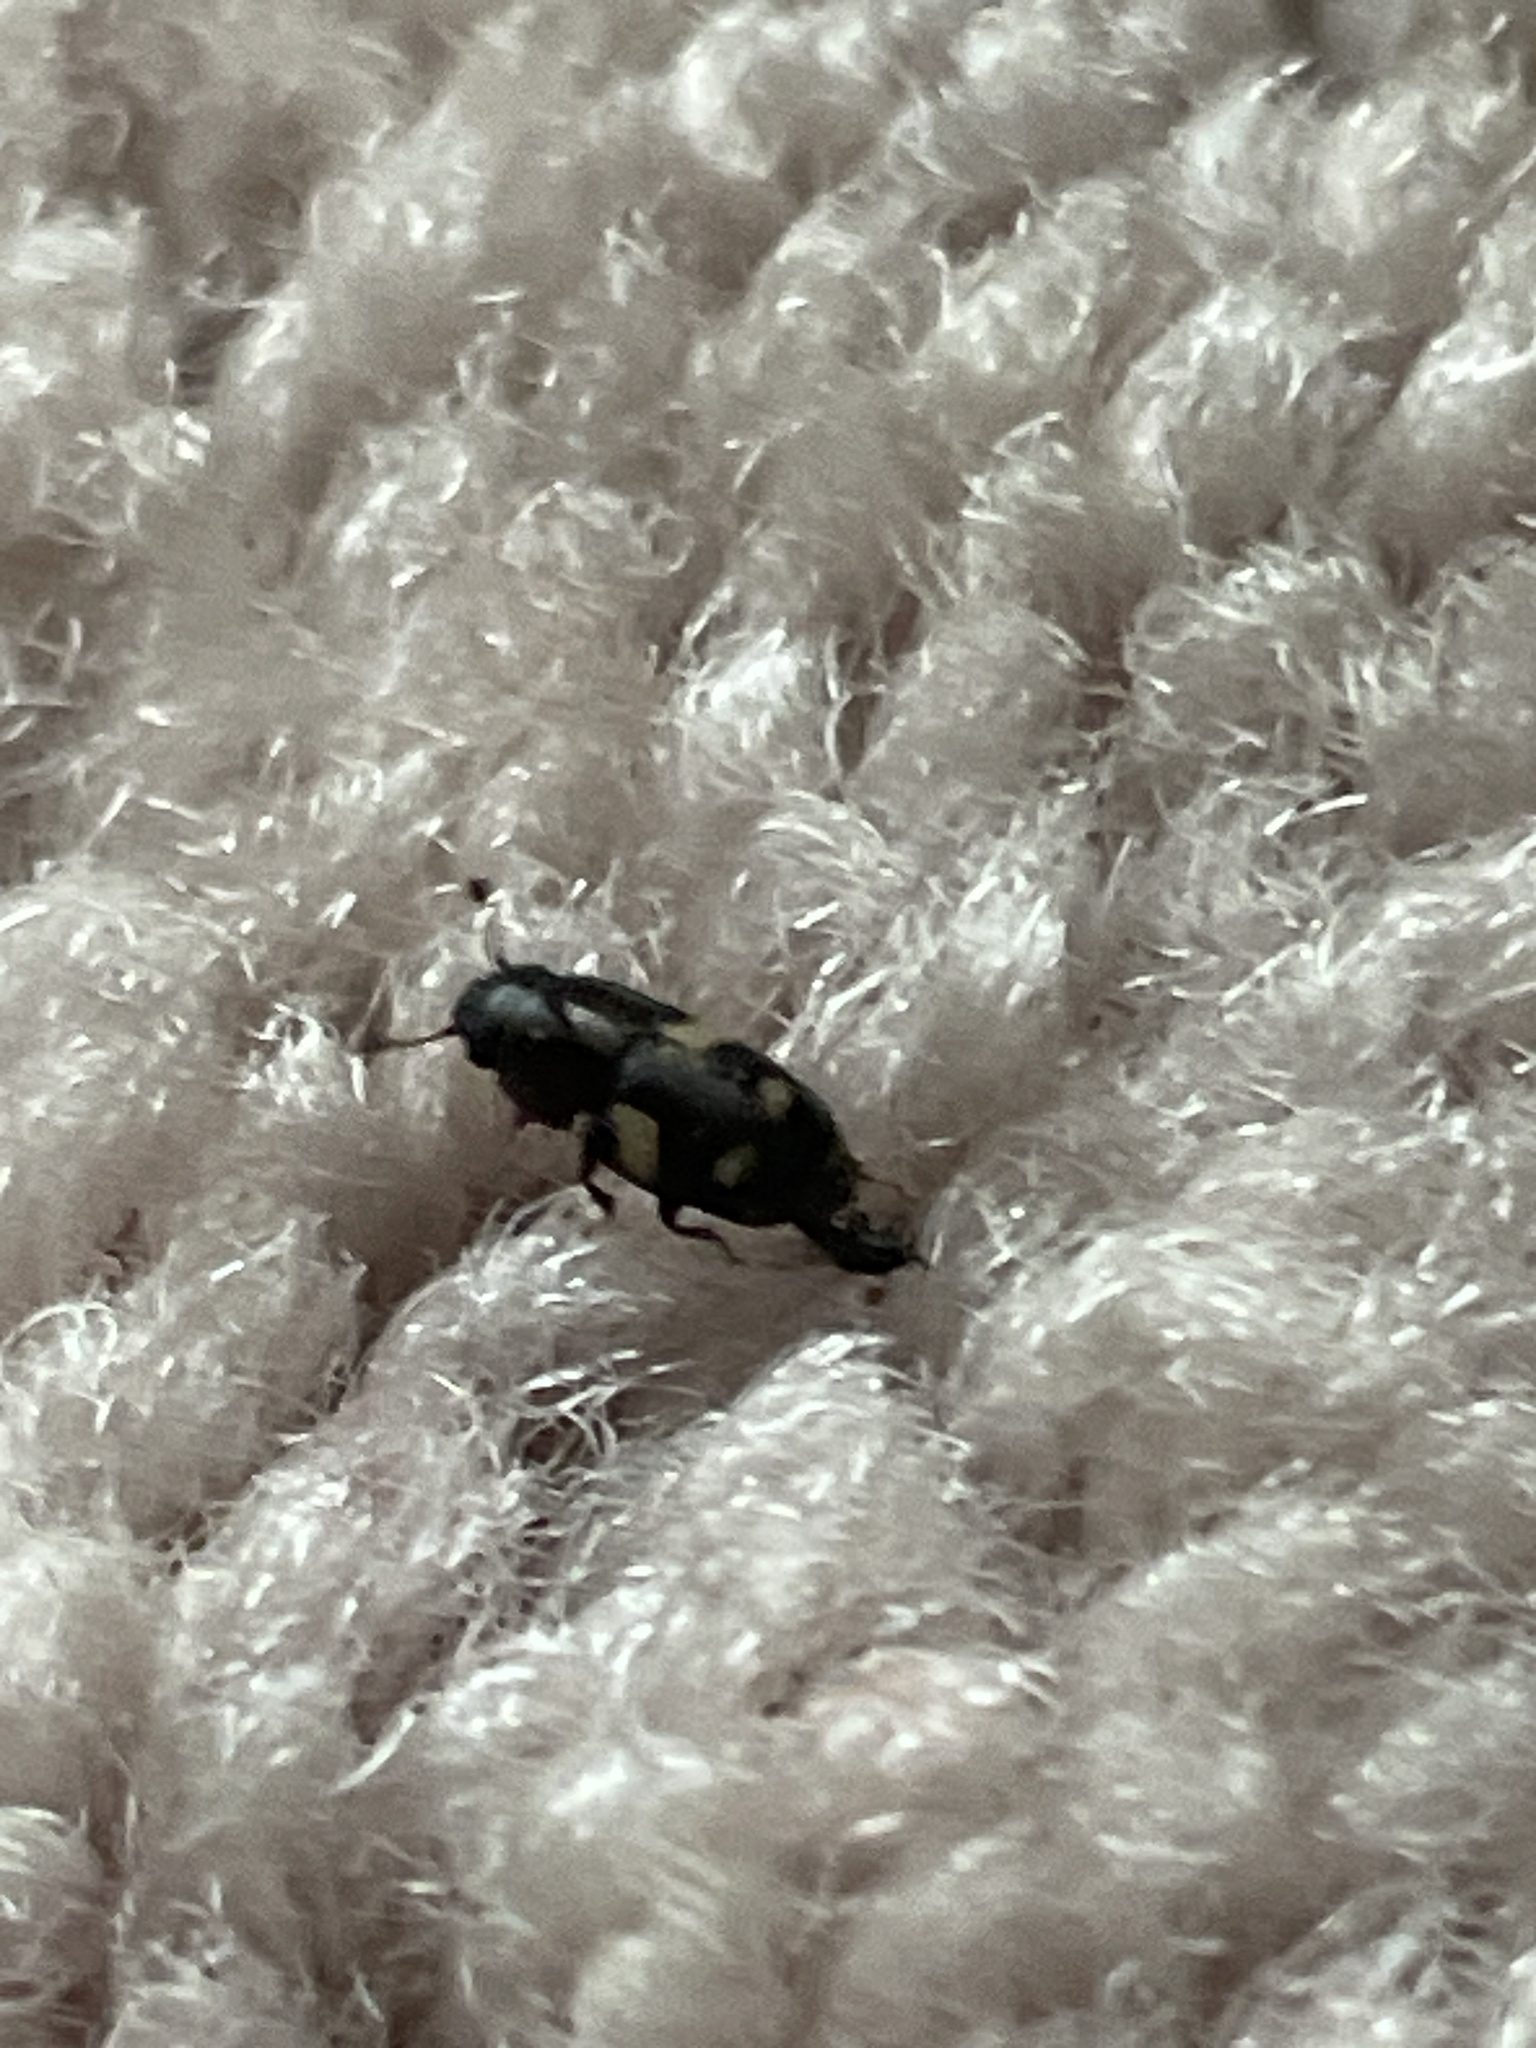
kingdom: Animalia
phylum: Arthropoda
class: Insecta
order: Coleoptera
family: Nitidulidae
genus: Glischrochilus
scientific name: Glischrochilus quadrisignatus
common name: Picnic beetle
